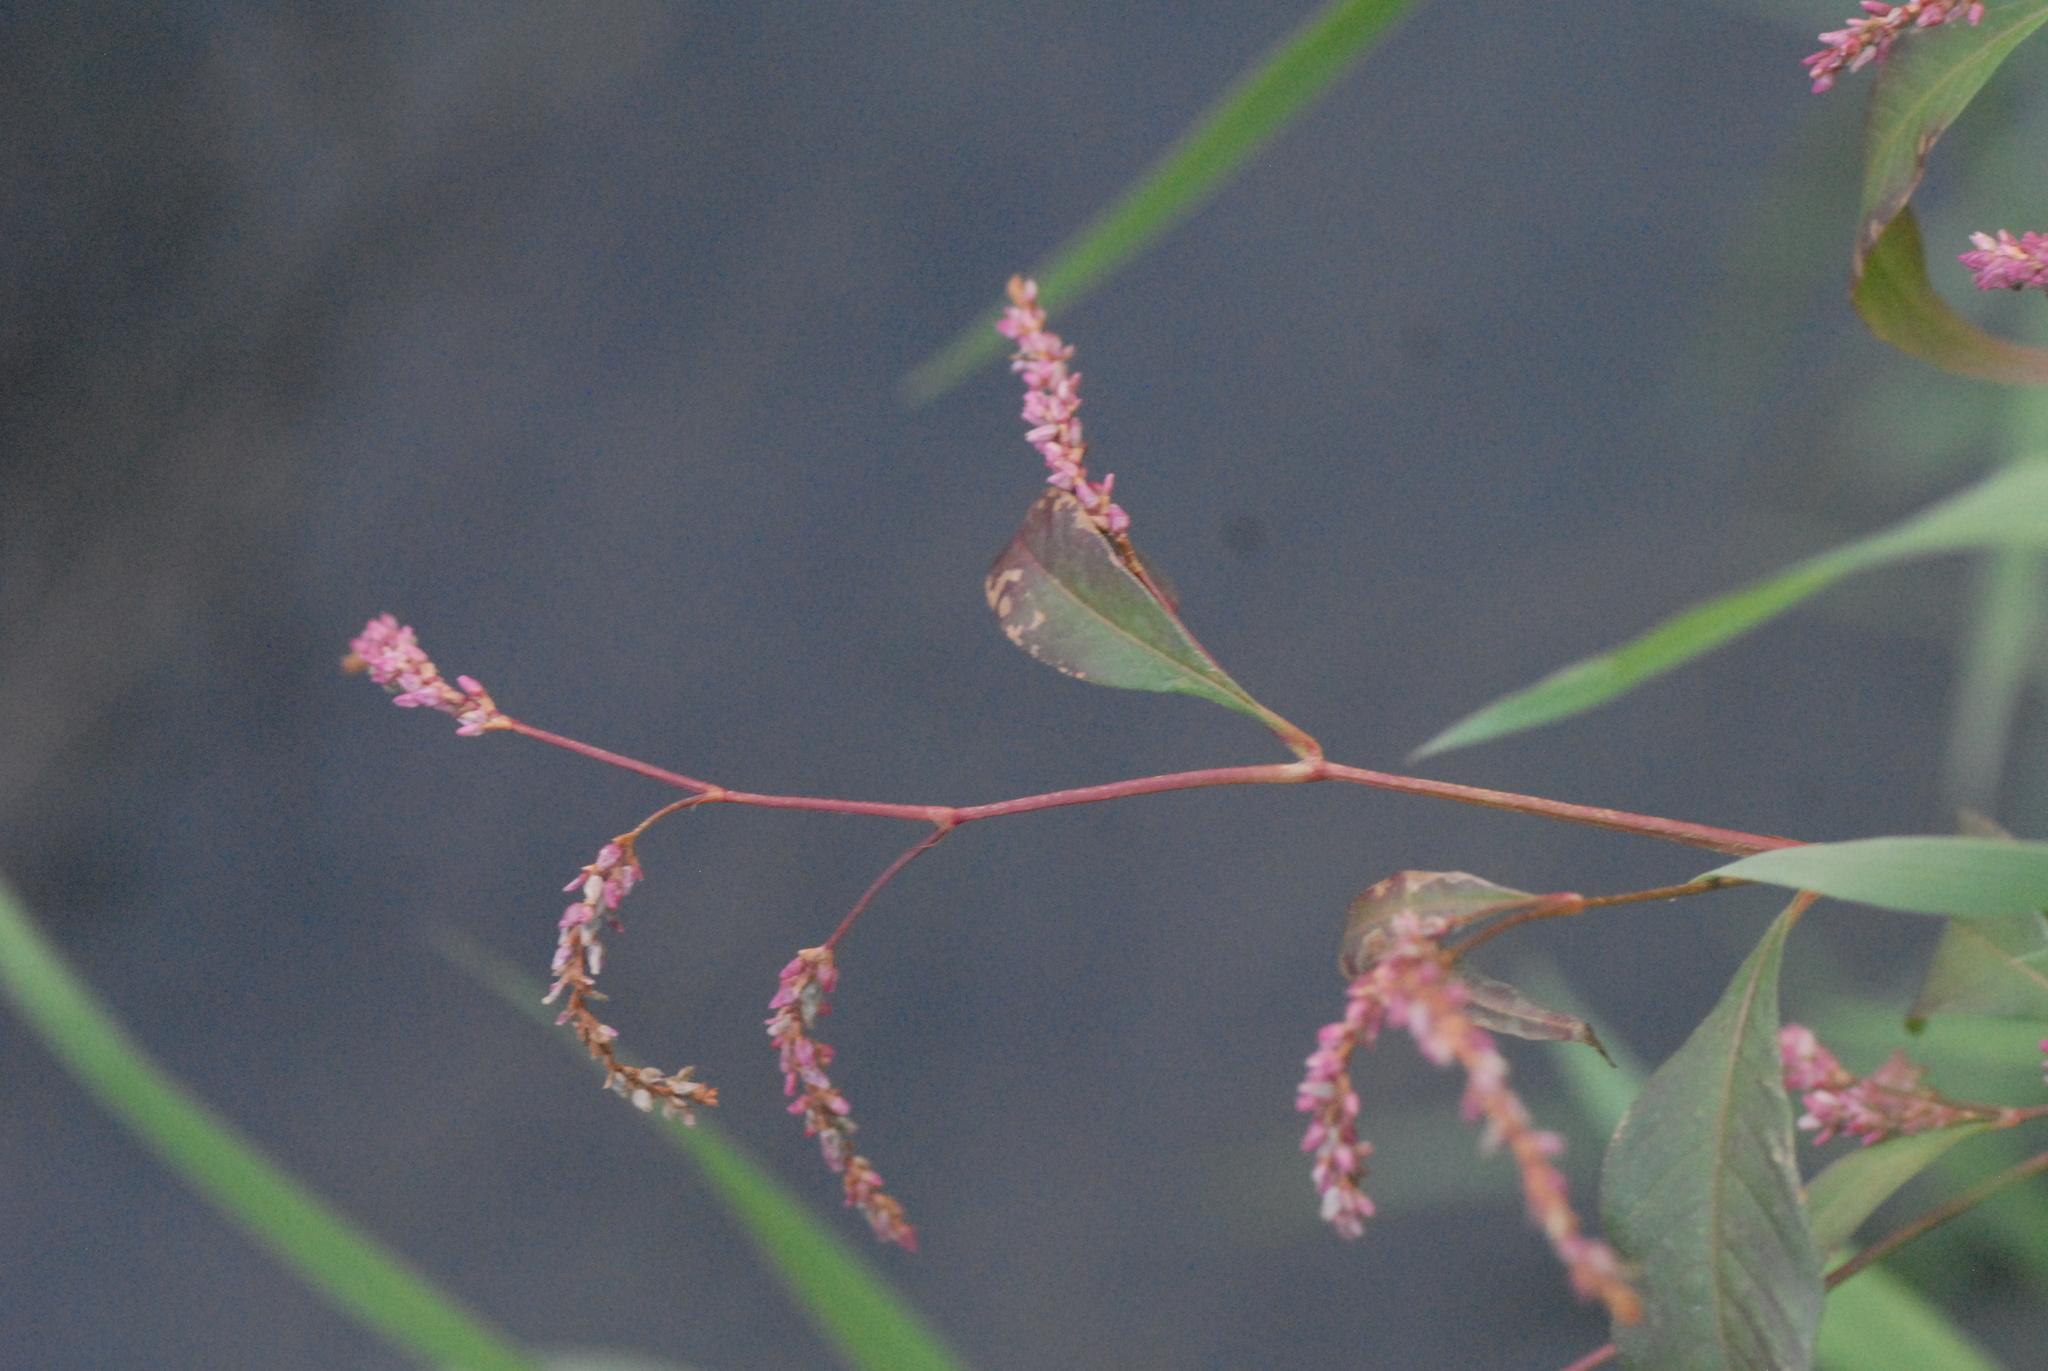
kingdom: Plantae
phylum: Tracheophyta
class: Magnoliopsida
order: Caryophyllales
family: Polygonaceae
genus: Persicaria
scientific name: Persicaria lapathifolia
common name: Curlytop knotweed
